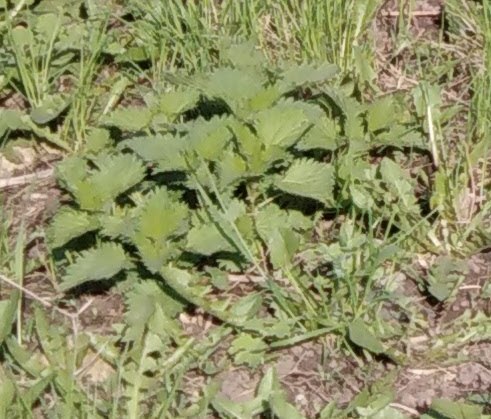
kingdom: Plantae
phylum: Tracheophyta
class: Magnoliopsida
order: Rosales
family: Urticaceae
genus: Urtica
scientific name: Urtica dioica
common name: Common nettle
